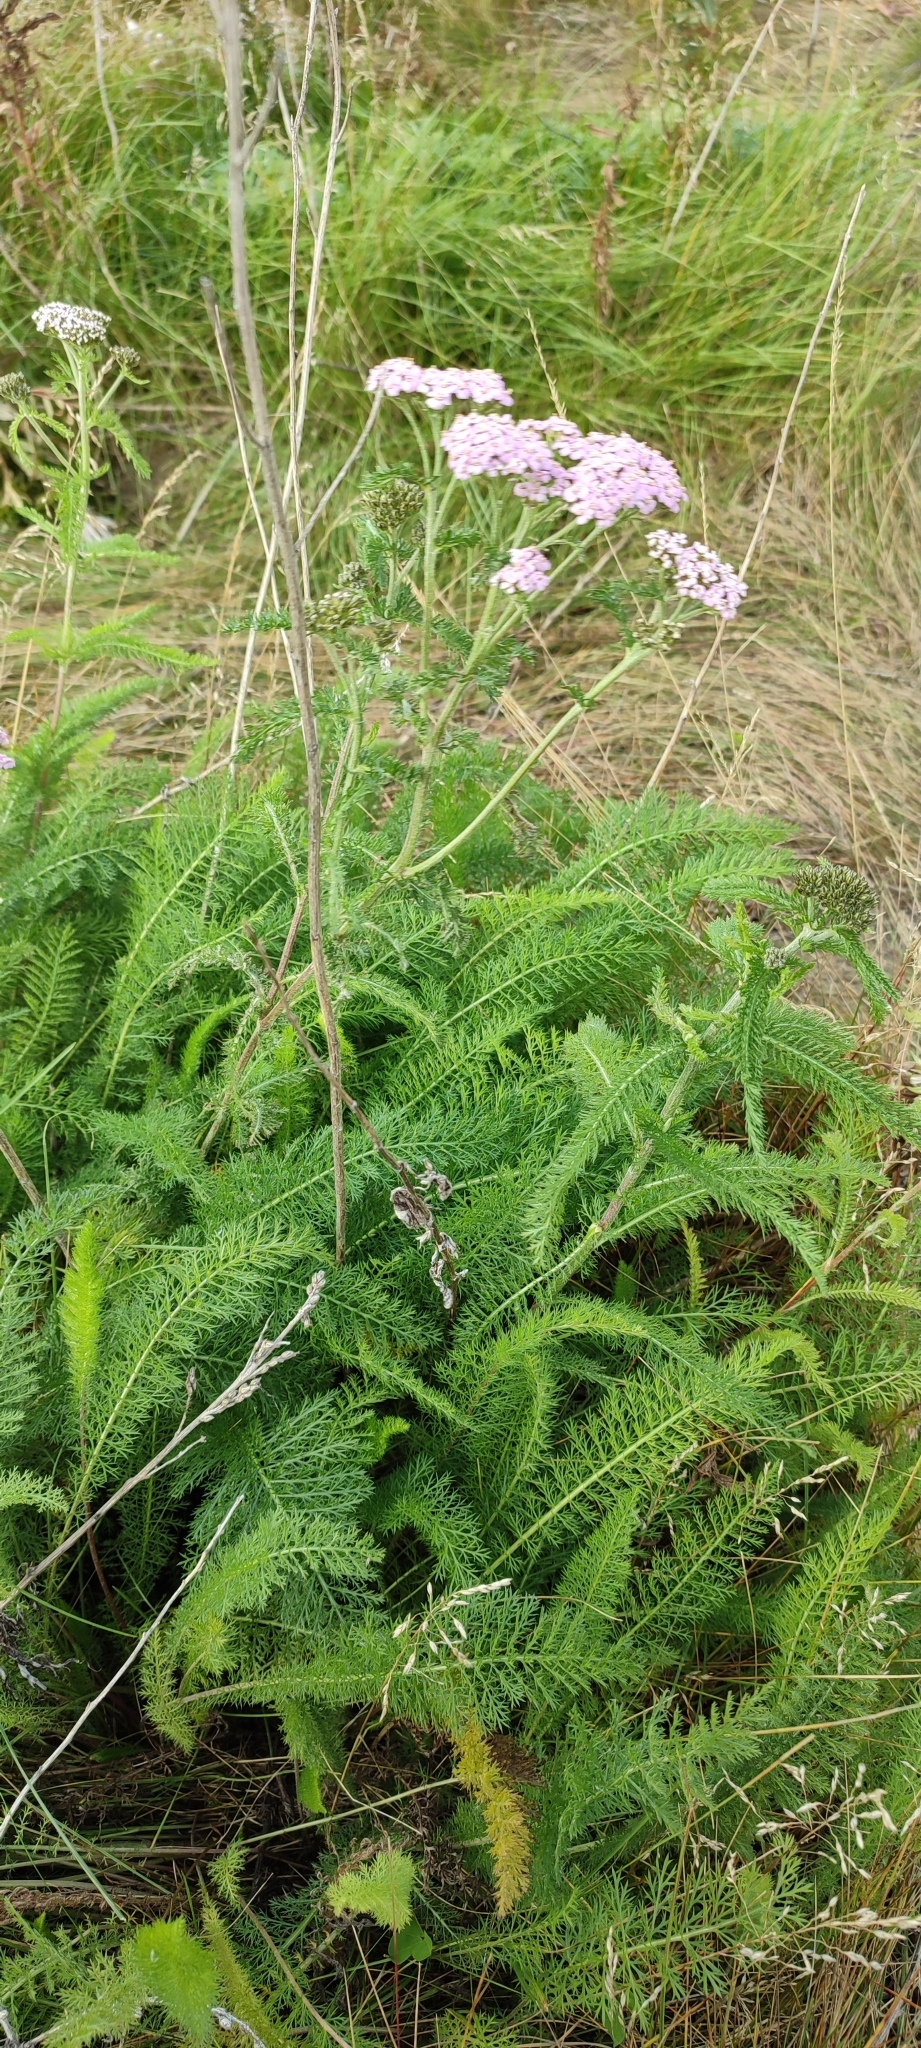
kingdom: Plantae
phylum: Tracheophyta
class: Magnoliopsida
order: Asterales
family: Asteraceae
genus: Achillea
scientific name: Achillea asiatica
